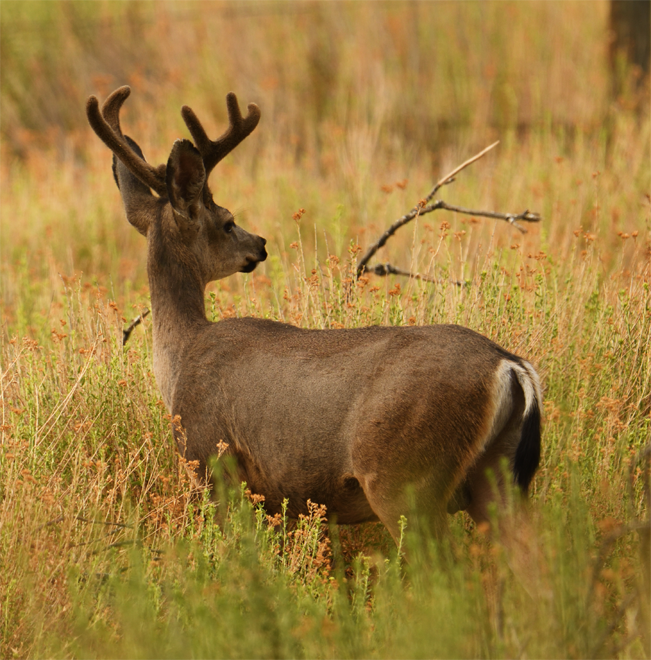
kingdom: Animalia
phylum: Chordata
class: Mammalia
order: Artiodactyla
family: Cervidae
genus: Odocoileus
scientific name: Odocoileus hemionus
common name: Mule deer
